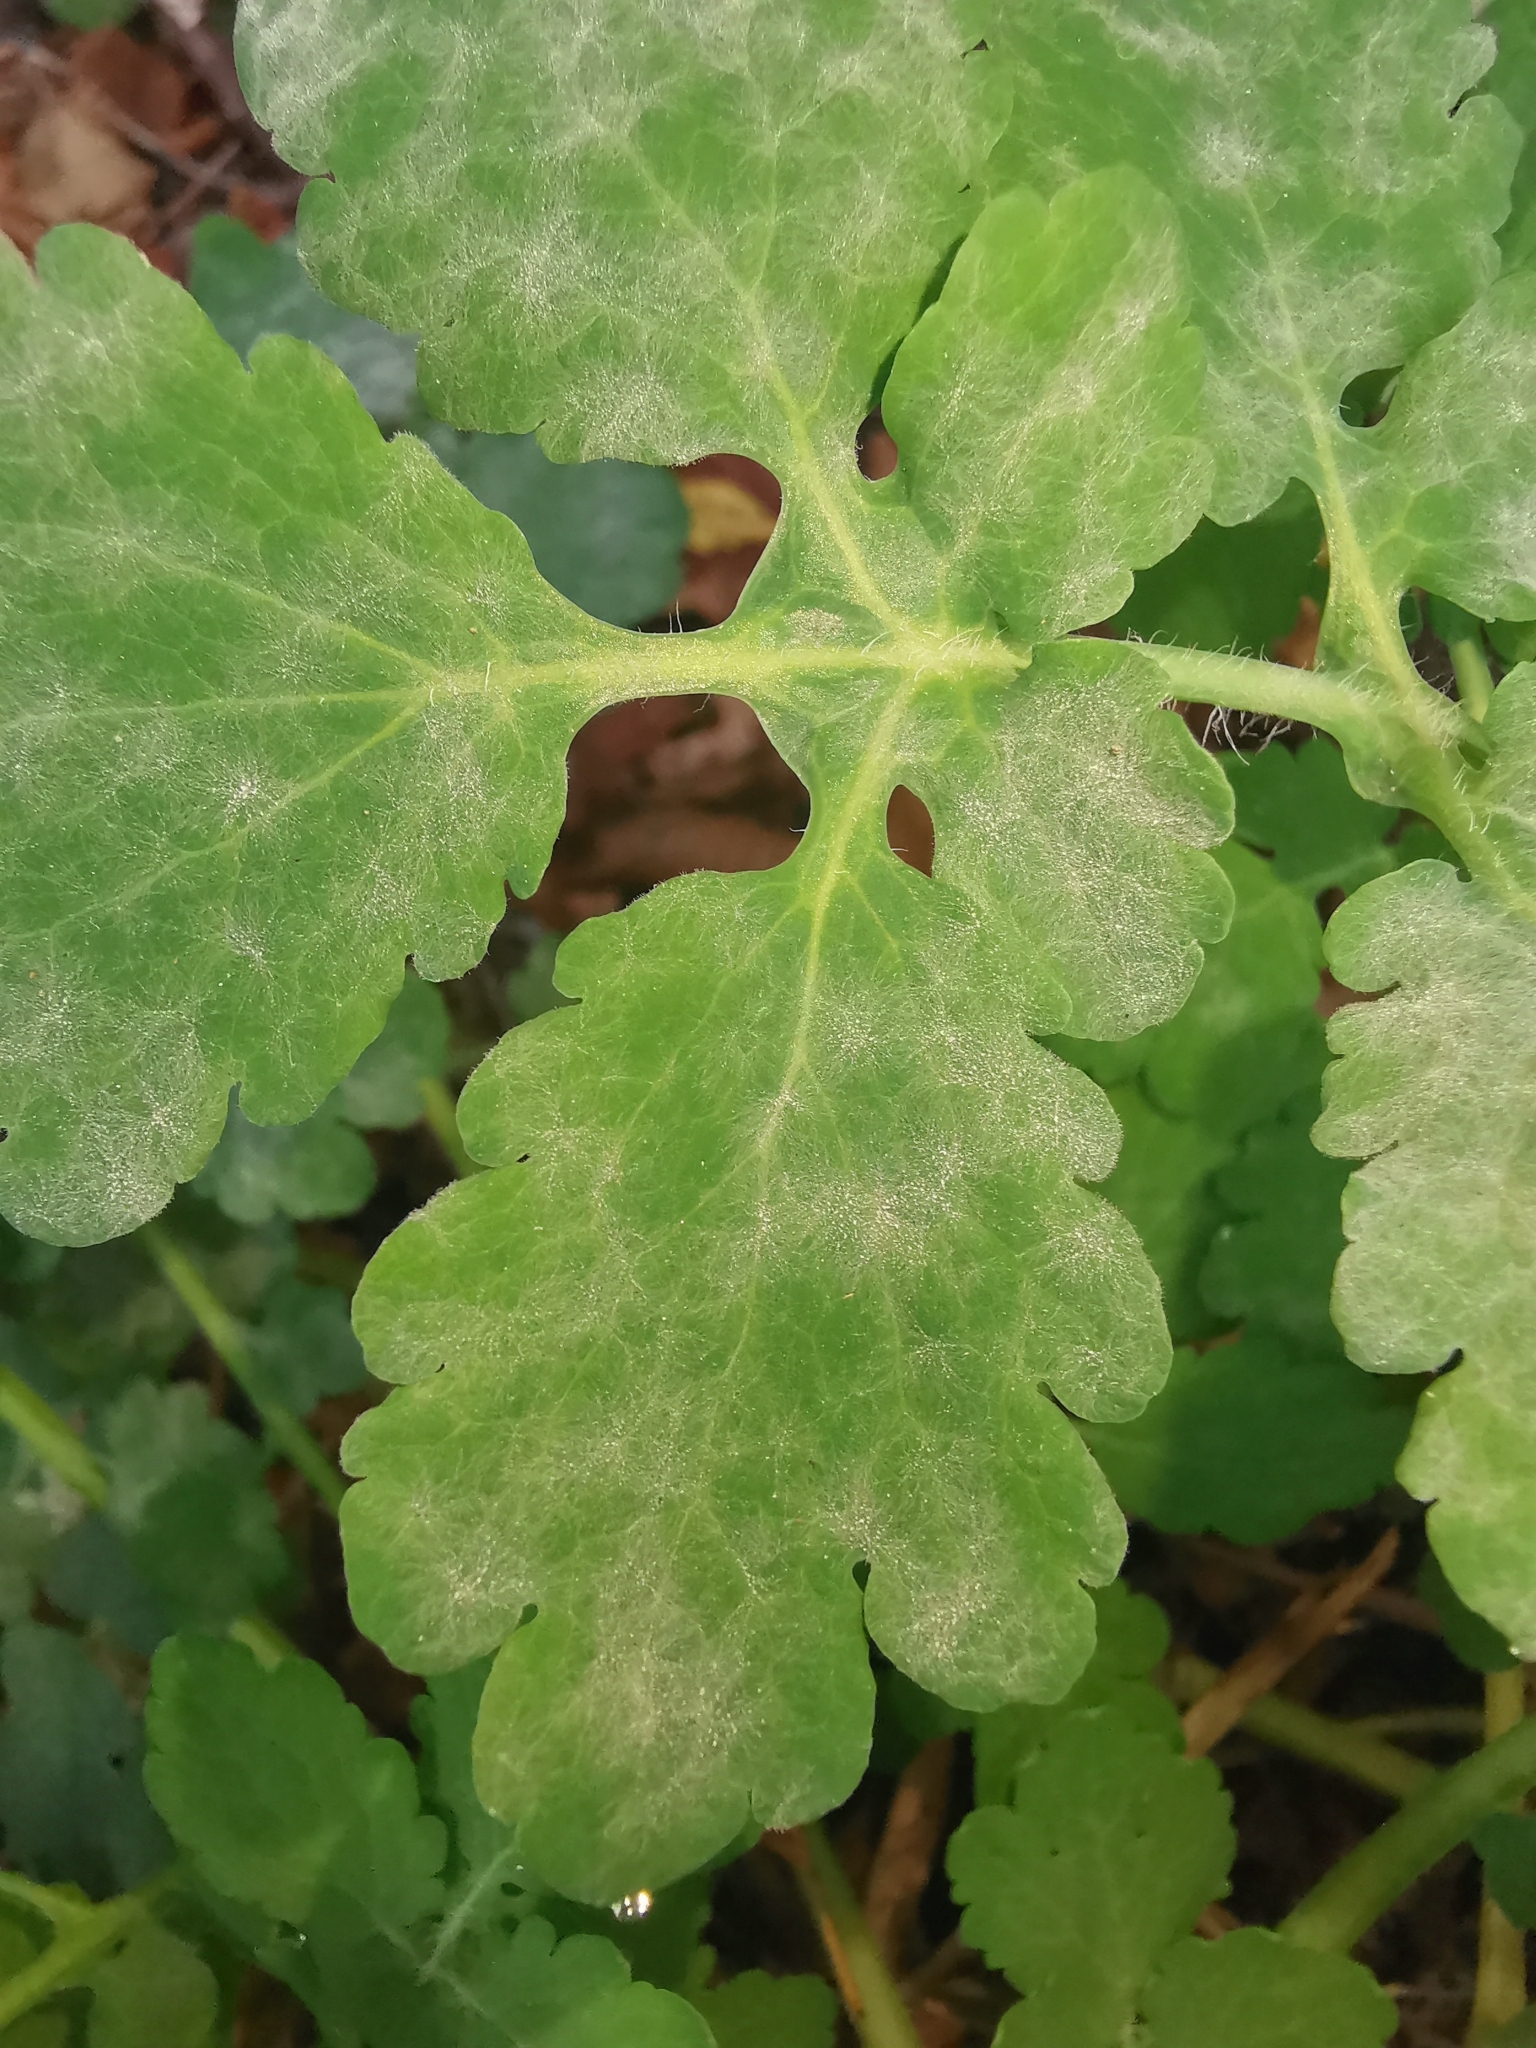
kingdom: Fungi
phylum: Ascomycota
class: Leotiomycetes
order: Helotiales
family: Erysiphaceae
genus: Erysiphe
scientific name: Erysiphe macleayae
